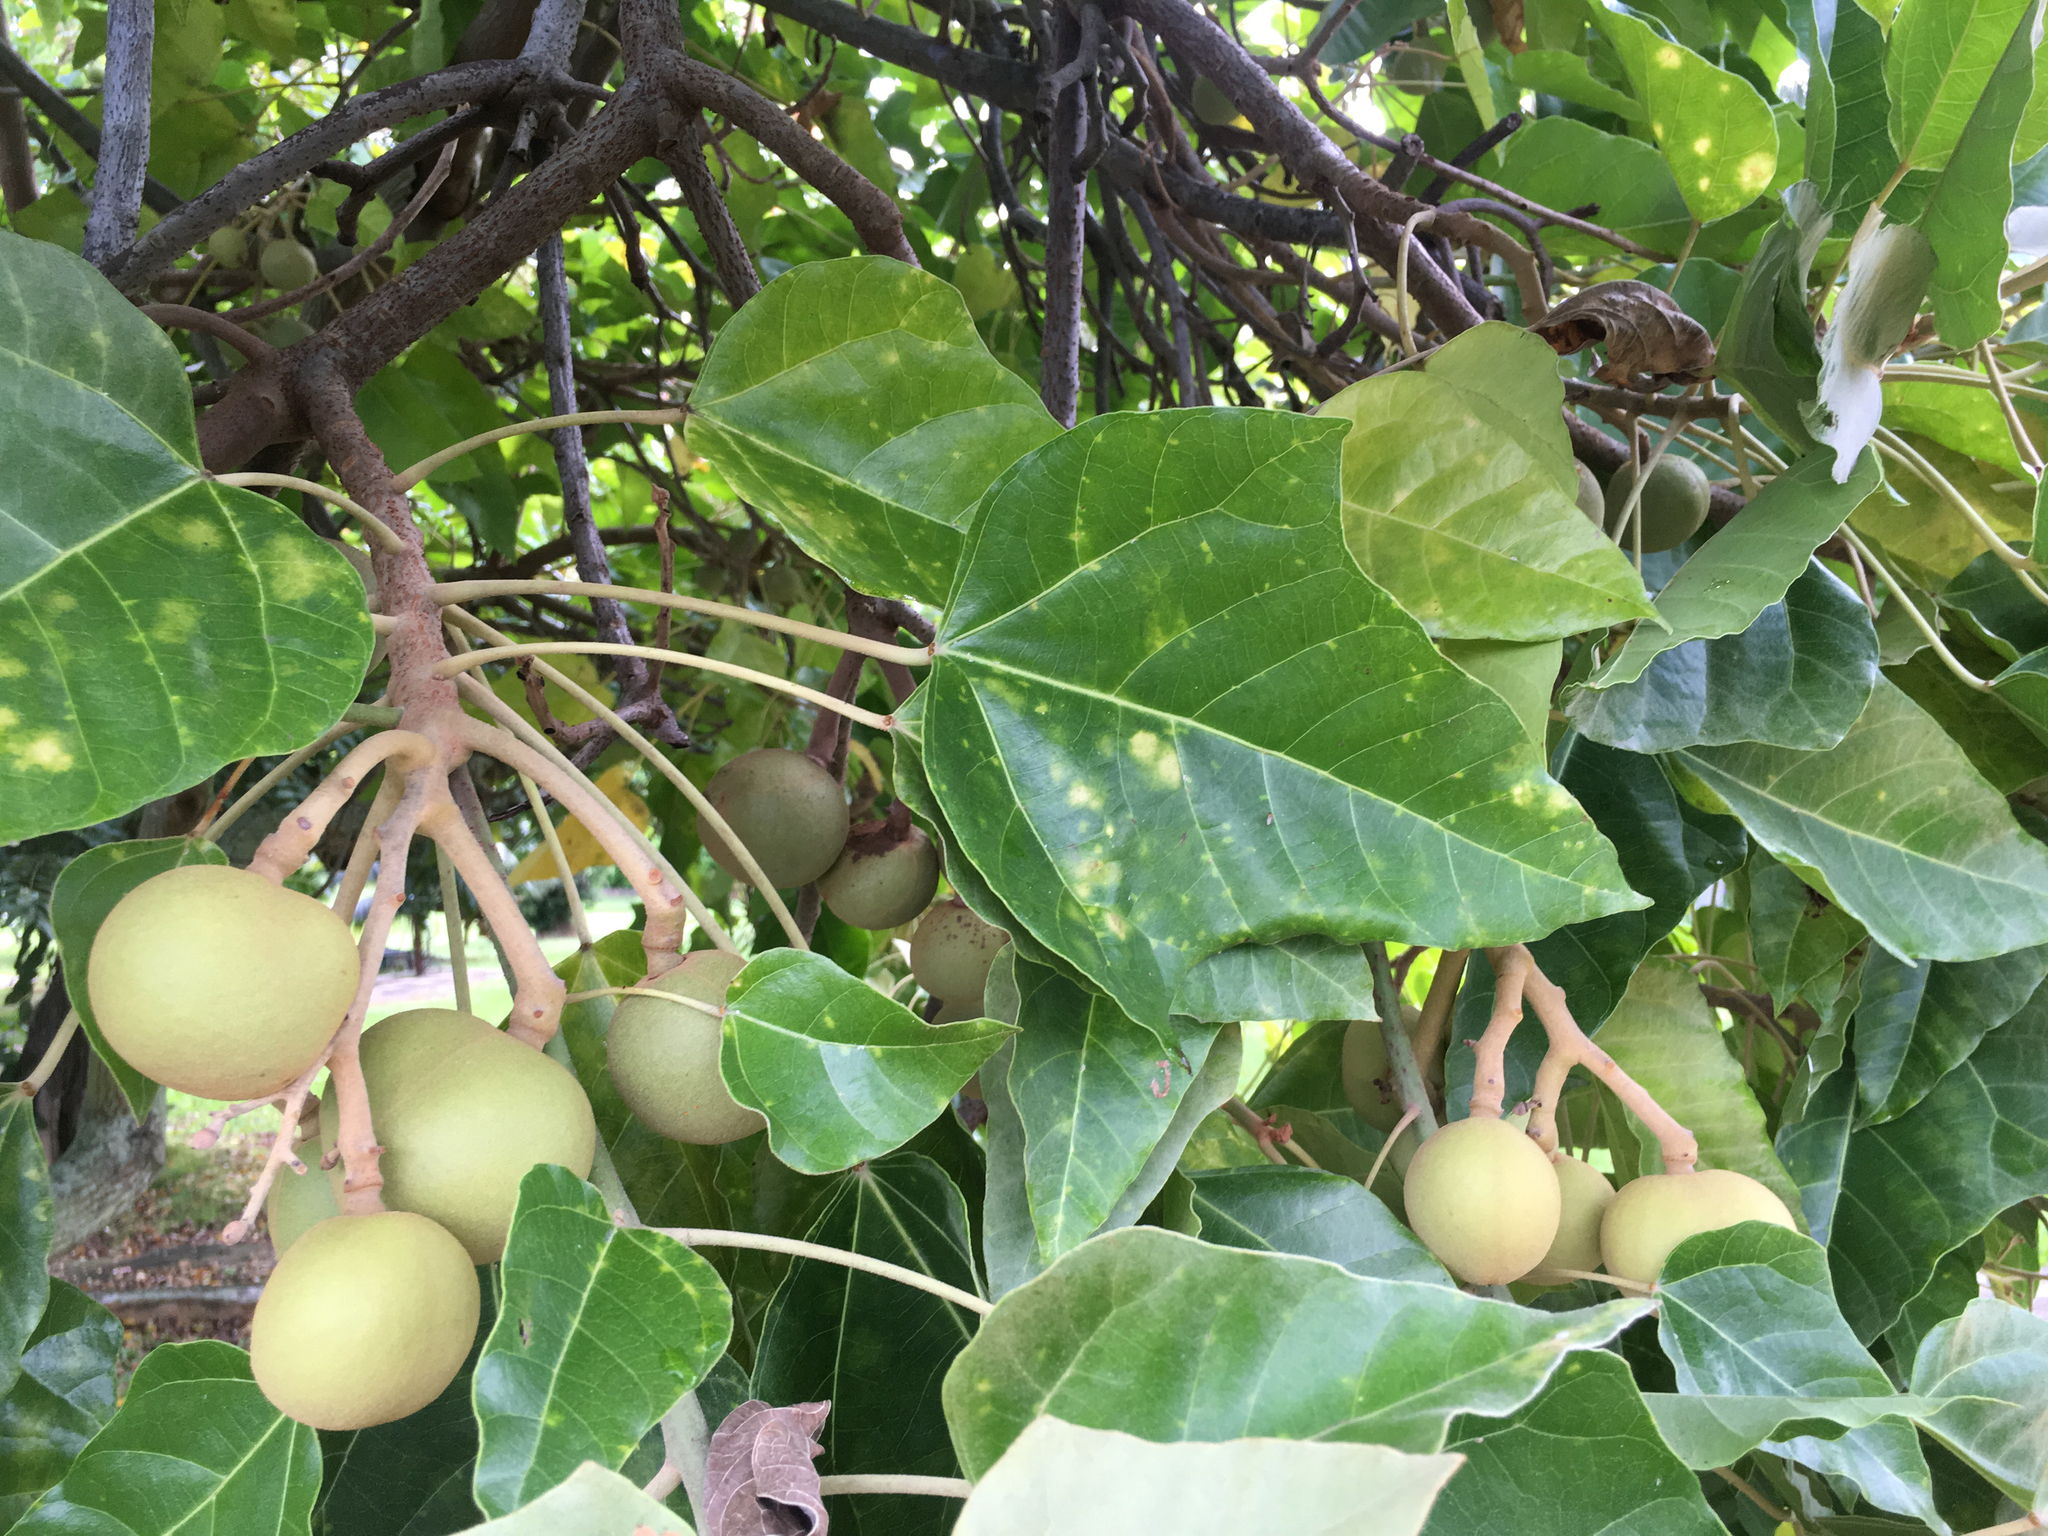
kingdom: Plantae
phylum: Tracheophyta
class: Magnoliopsida
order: Malpighiales
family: Euphorbiaceae
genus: Aleurites
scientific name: Aleurites moluccanus
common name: Candlenut tree
